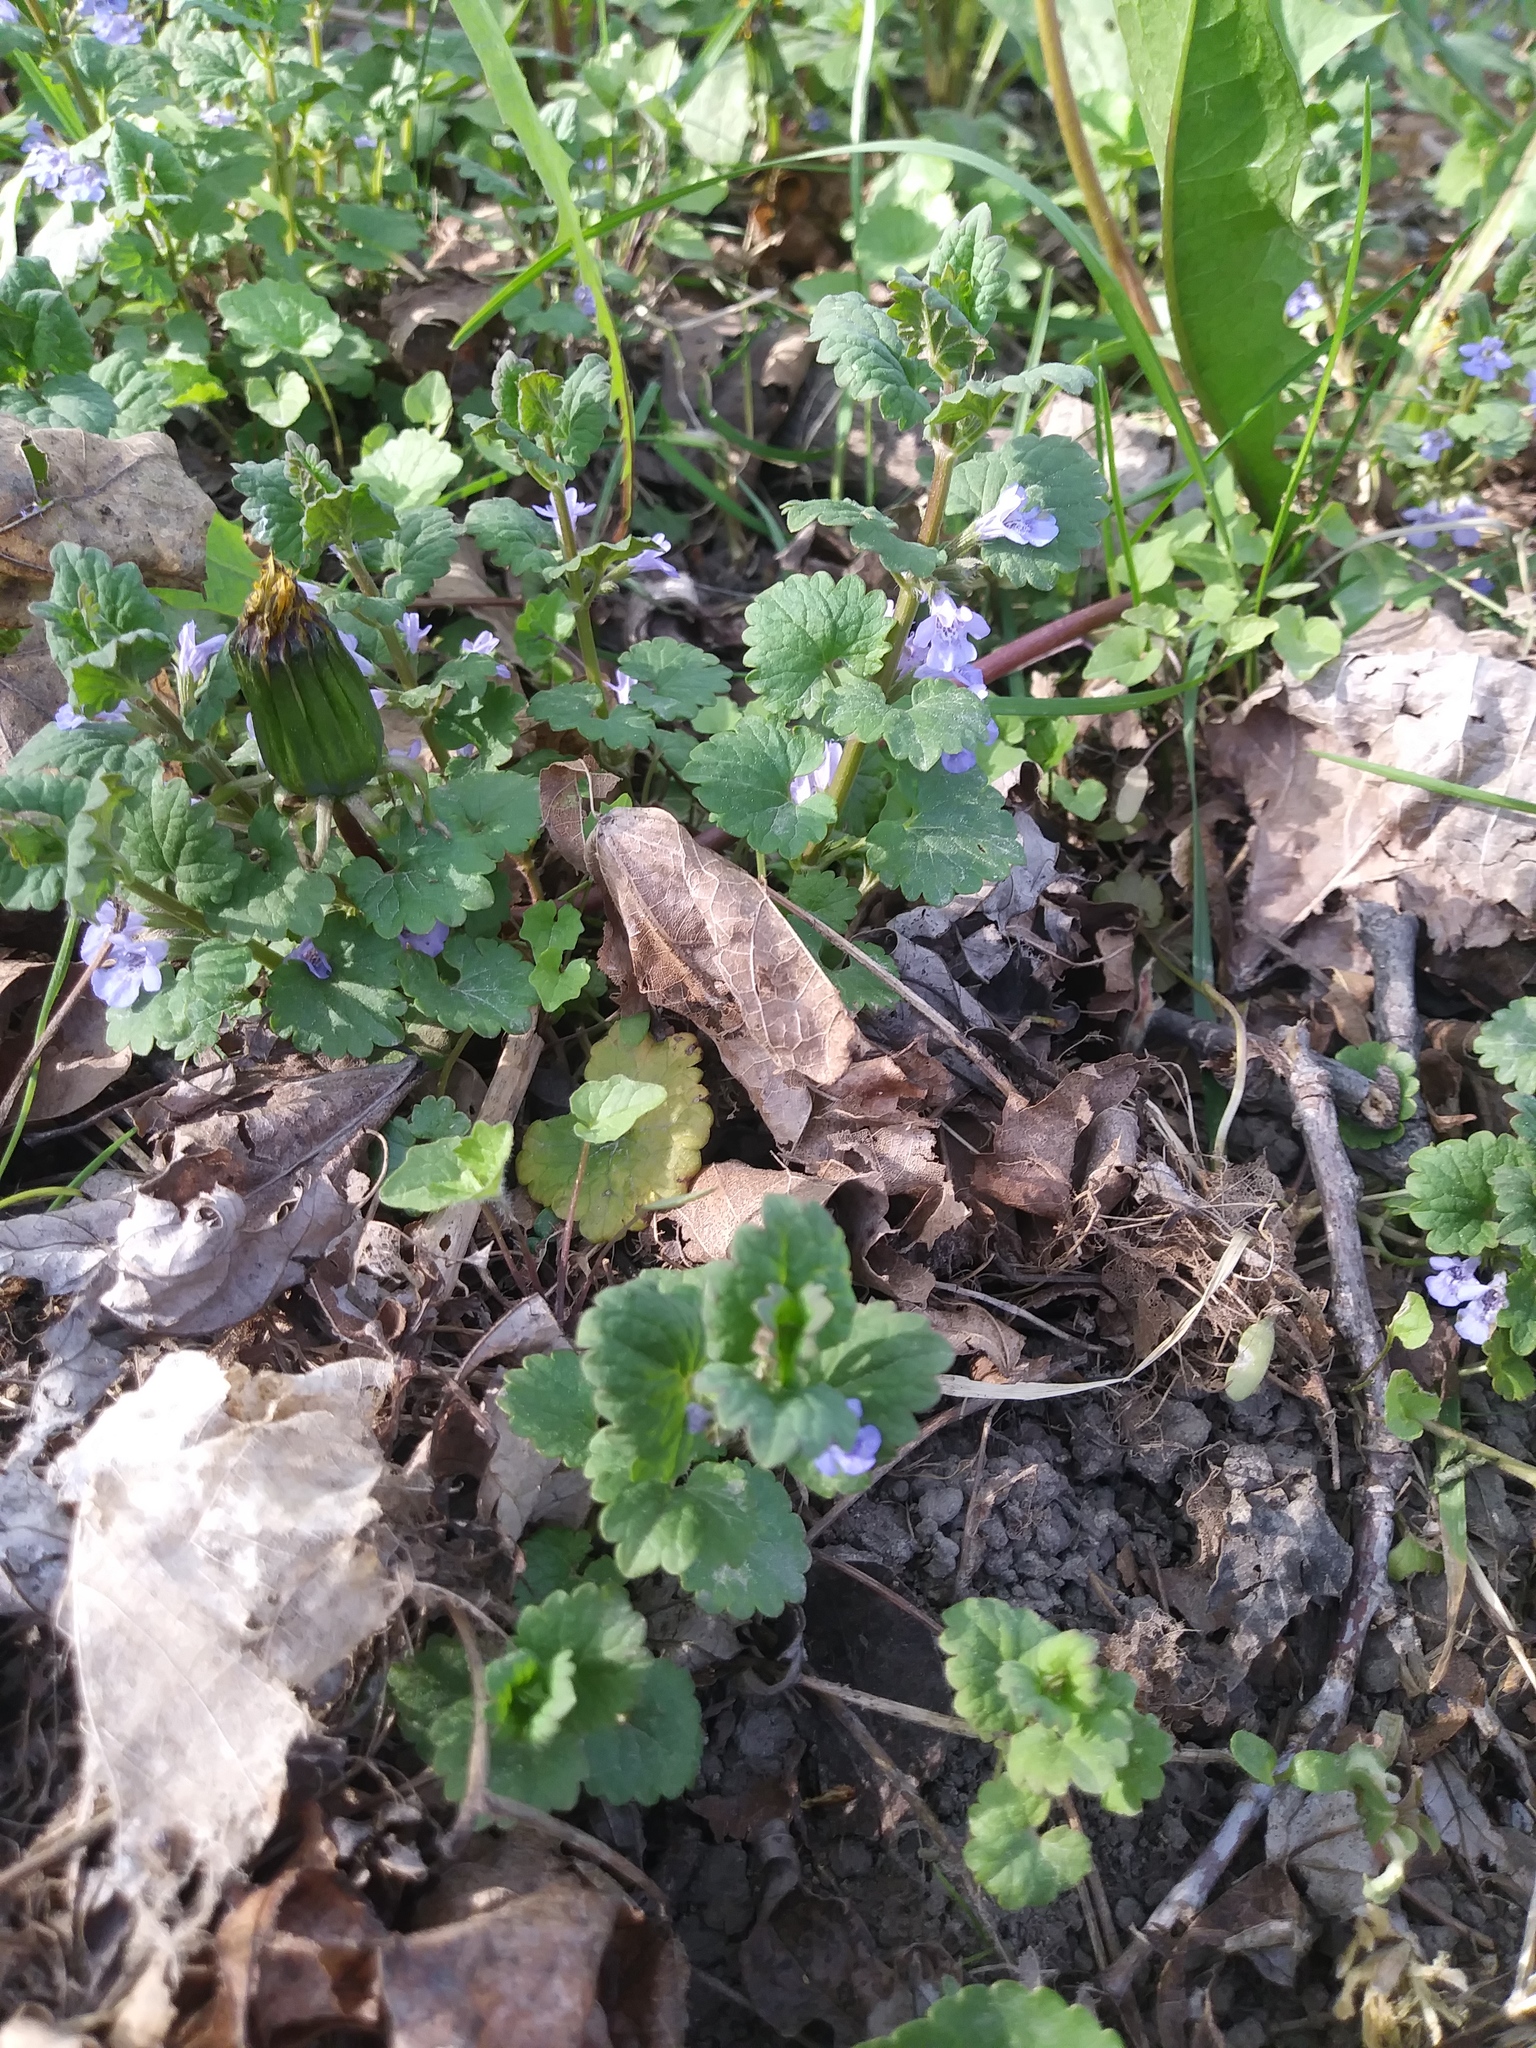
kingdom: Plantae
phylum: Tracheophyta
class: Magnoliopsida
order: Lamiales
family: Lamiaceae
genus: Glechoma
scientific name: Glechoma hederacea
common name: Ground ivy
